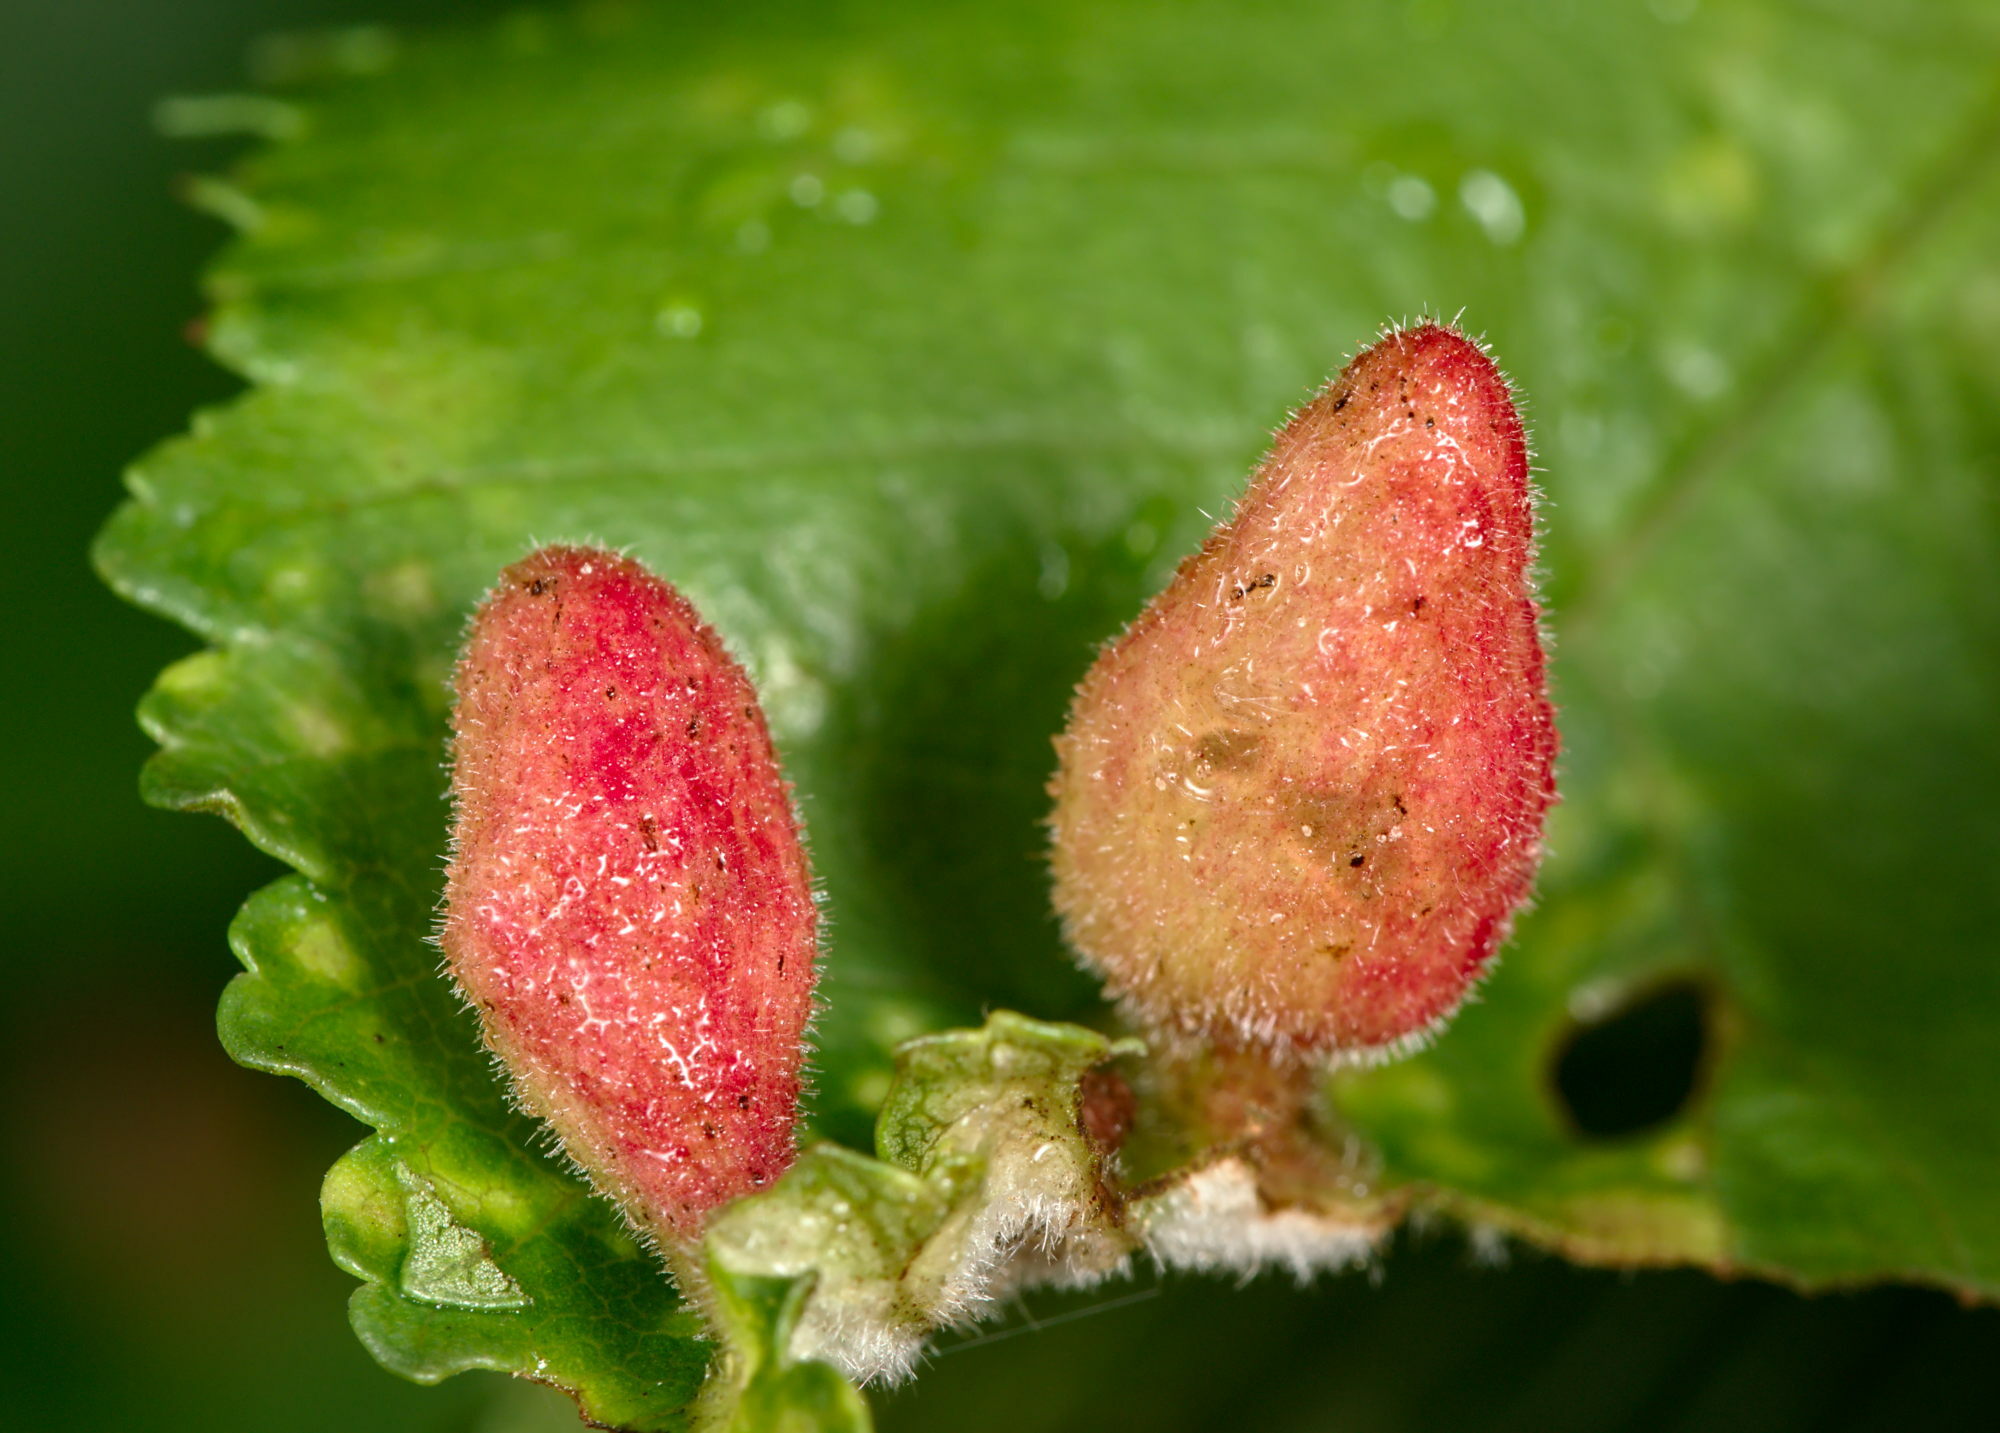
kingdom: Animalia
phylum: Arthropoda
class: Insecta
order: Hemiptera
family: Aphididae
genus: Tetraneura
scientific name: Tetraneura nigriabdominalis
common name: Aphid
